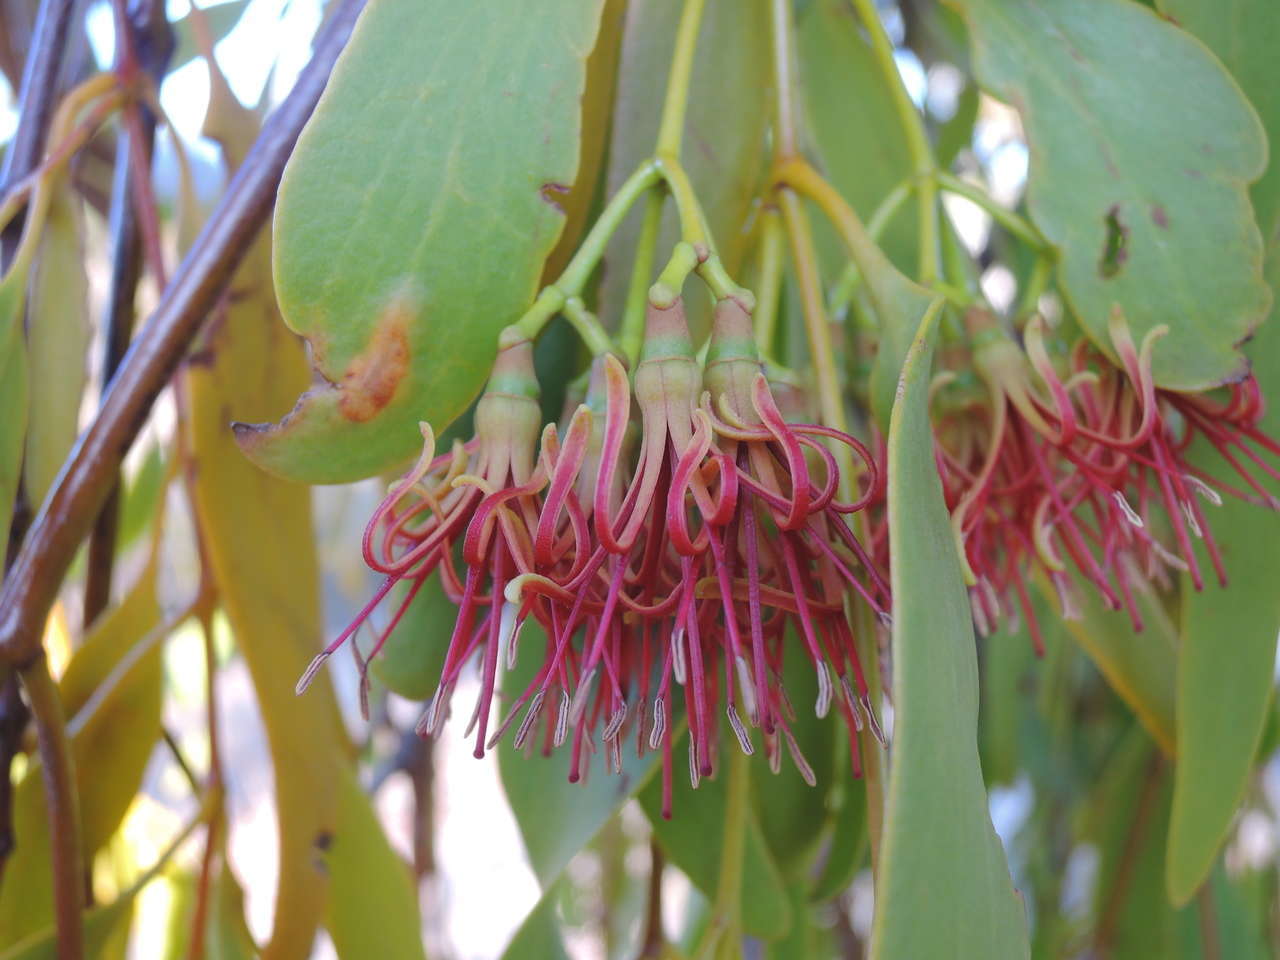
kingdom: Plantae
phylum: Tracheophyta
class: Magnoliopsida
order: Santalales
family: Loranthaceae
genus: Amyema
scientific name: Amyema miquelii
